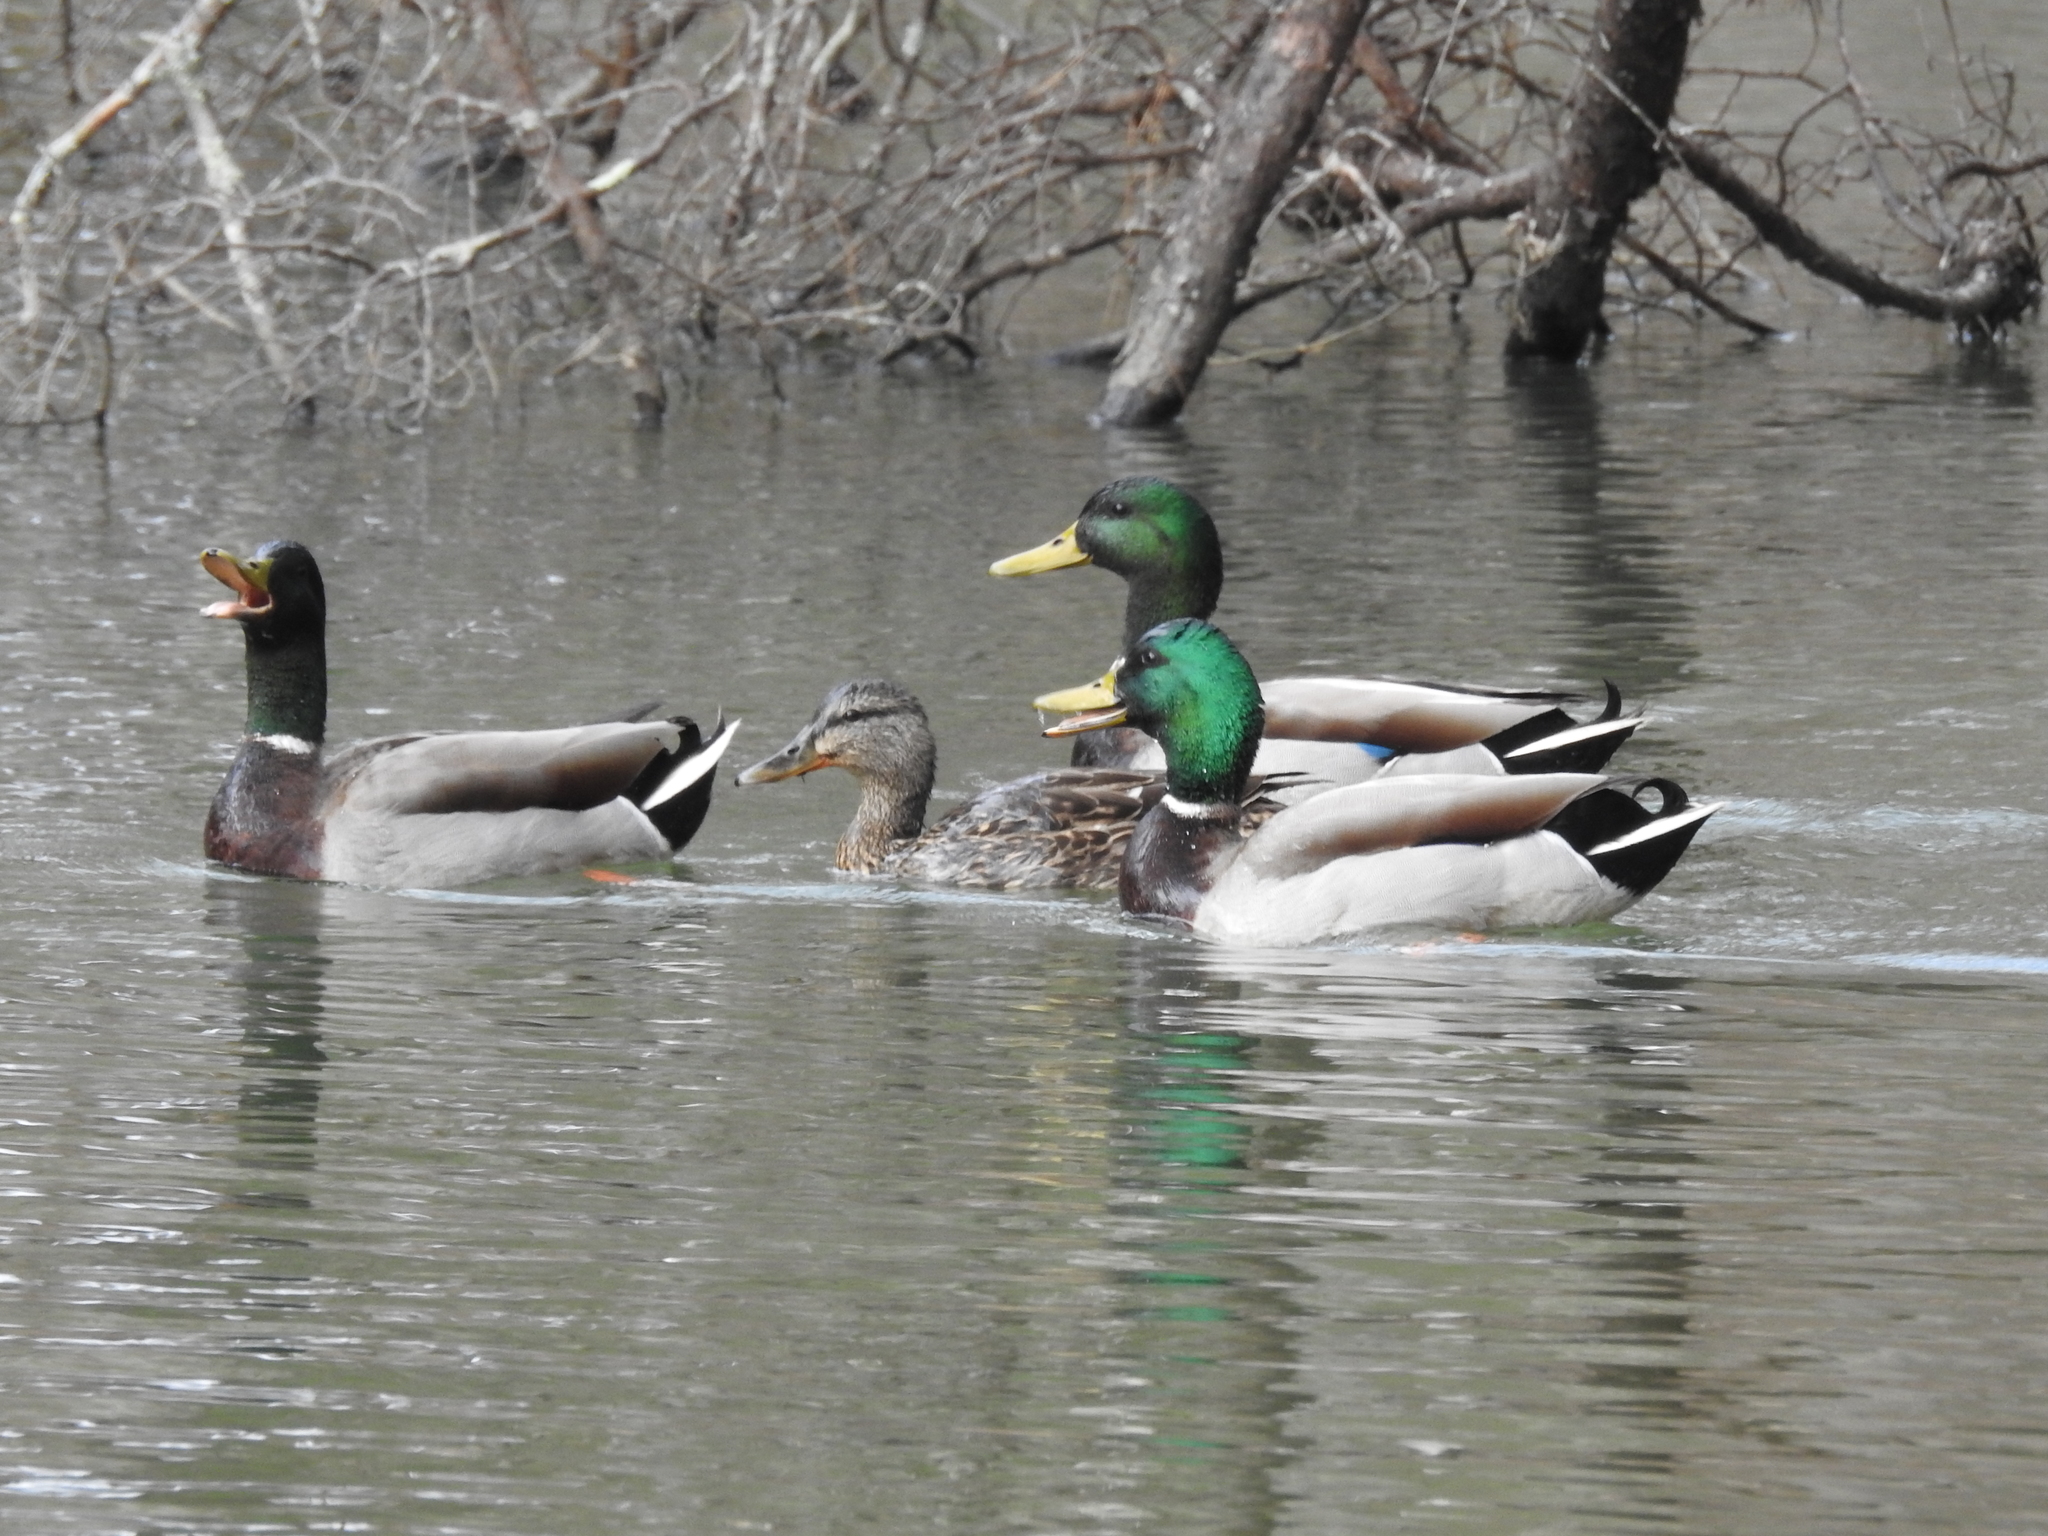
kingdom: Animalia
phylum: Chordata
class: Aves
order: Anseriformes
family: Anatidae
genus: Anas
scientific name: Anas platyrhynchos
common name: Mallard
